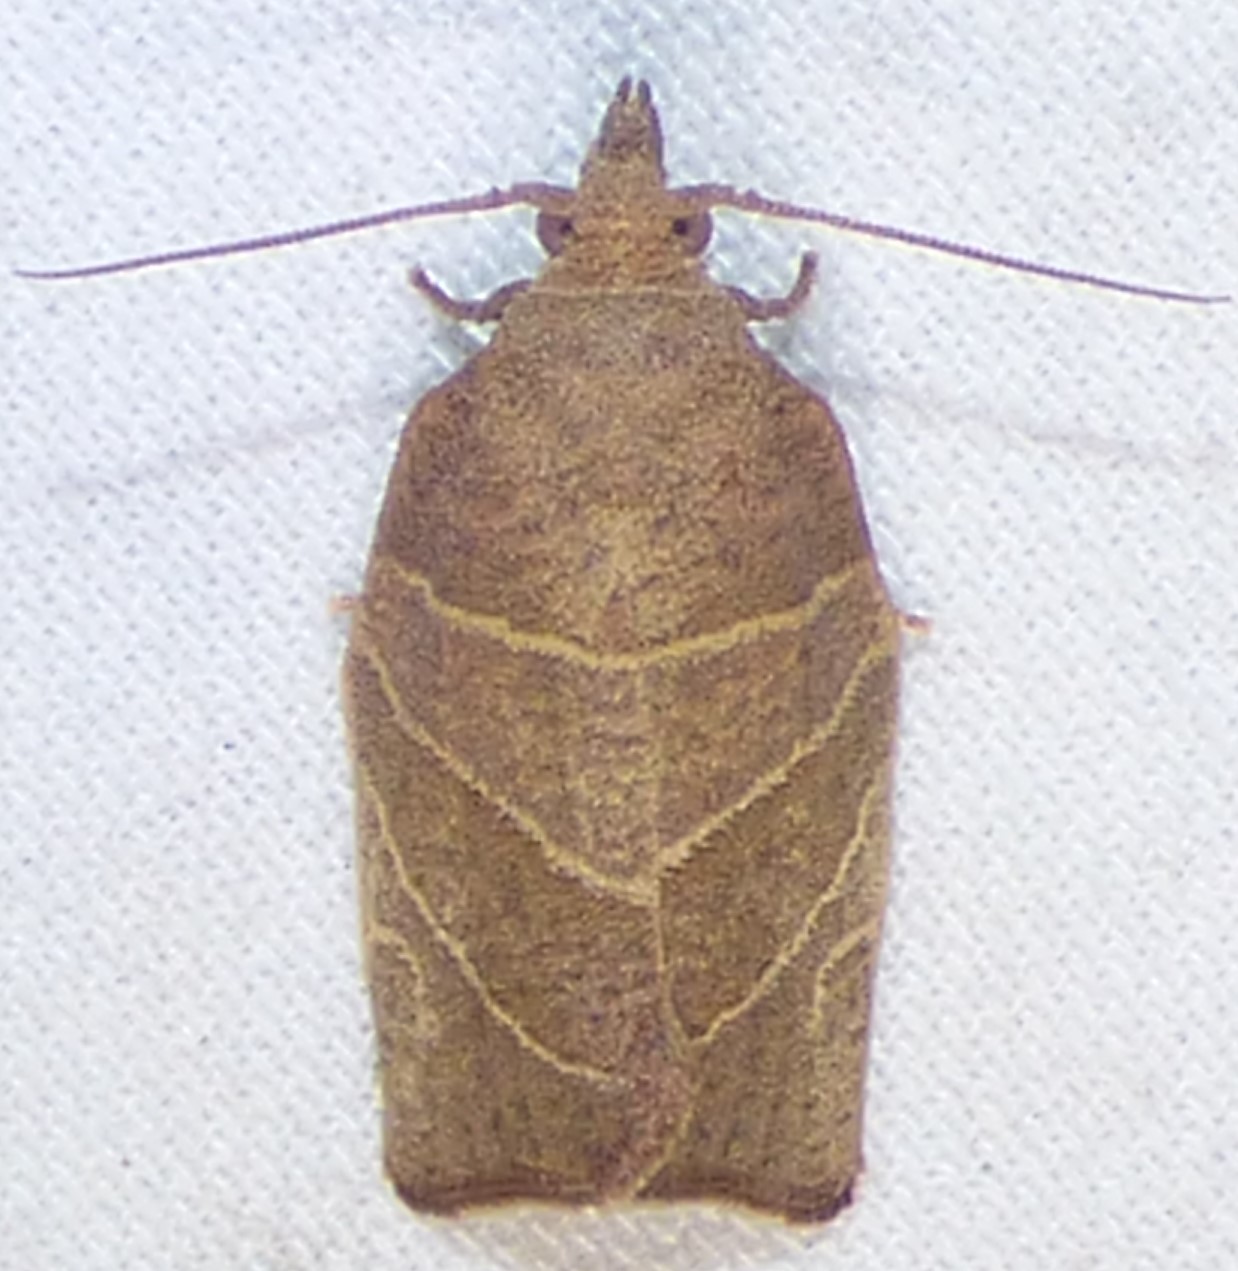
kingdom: Animalia
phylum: Arthropoda
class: Insecta
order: Lepidoptera
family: Tortricidae
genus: Pandemis
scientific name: Pandemis limitata
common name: Three-lined leafroller moth
